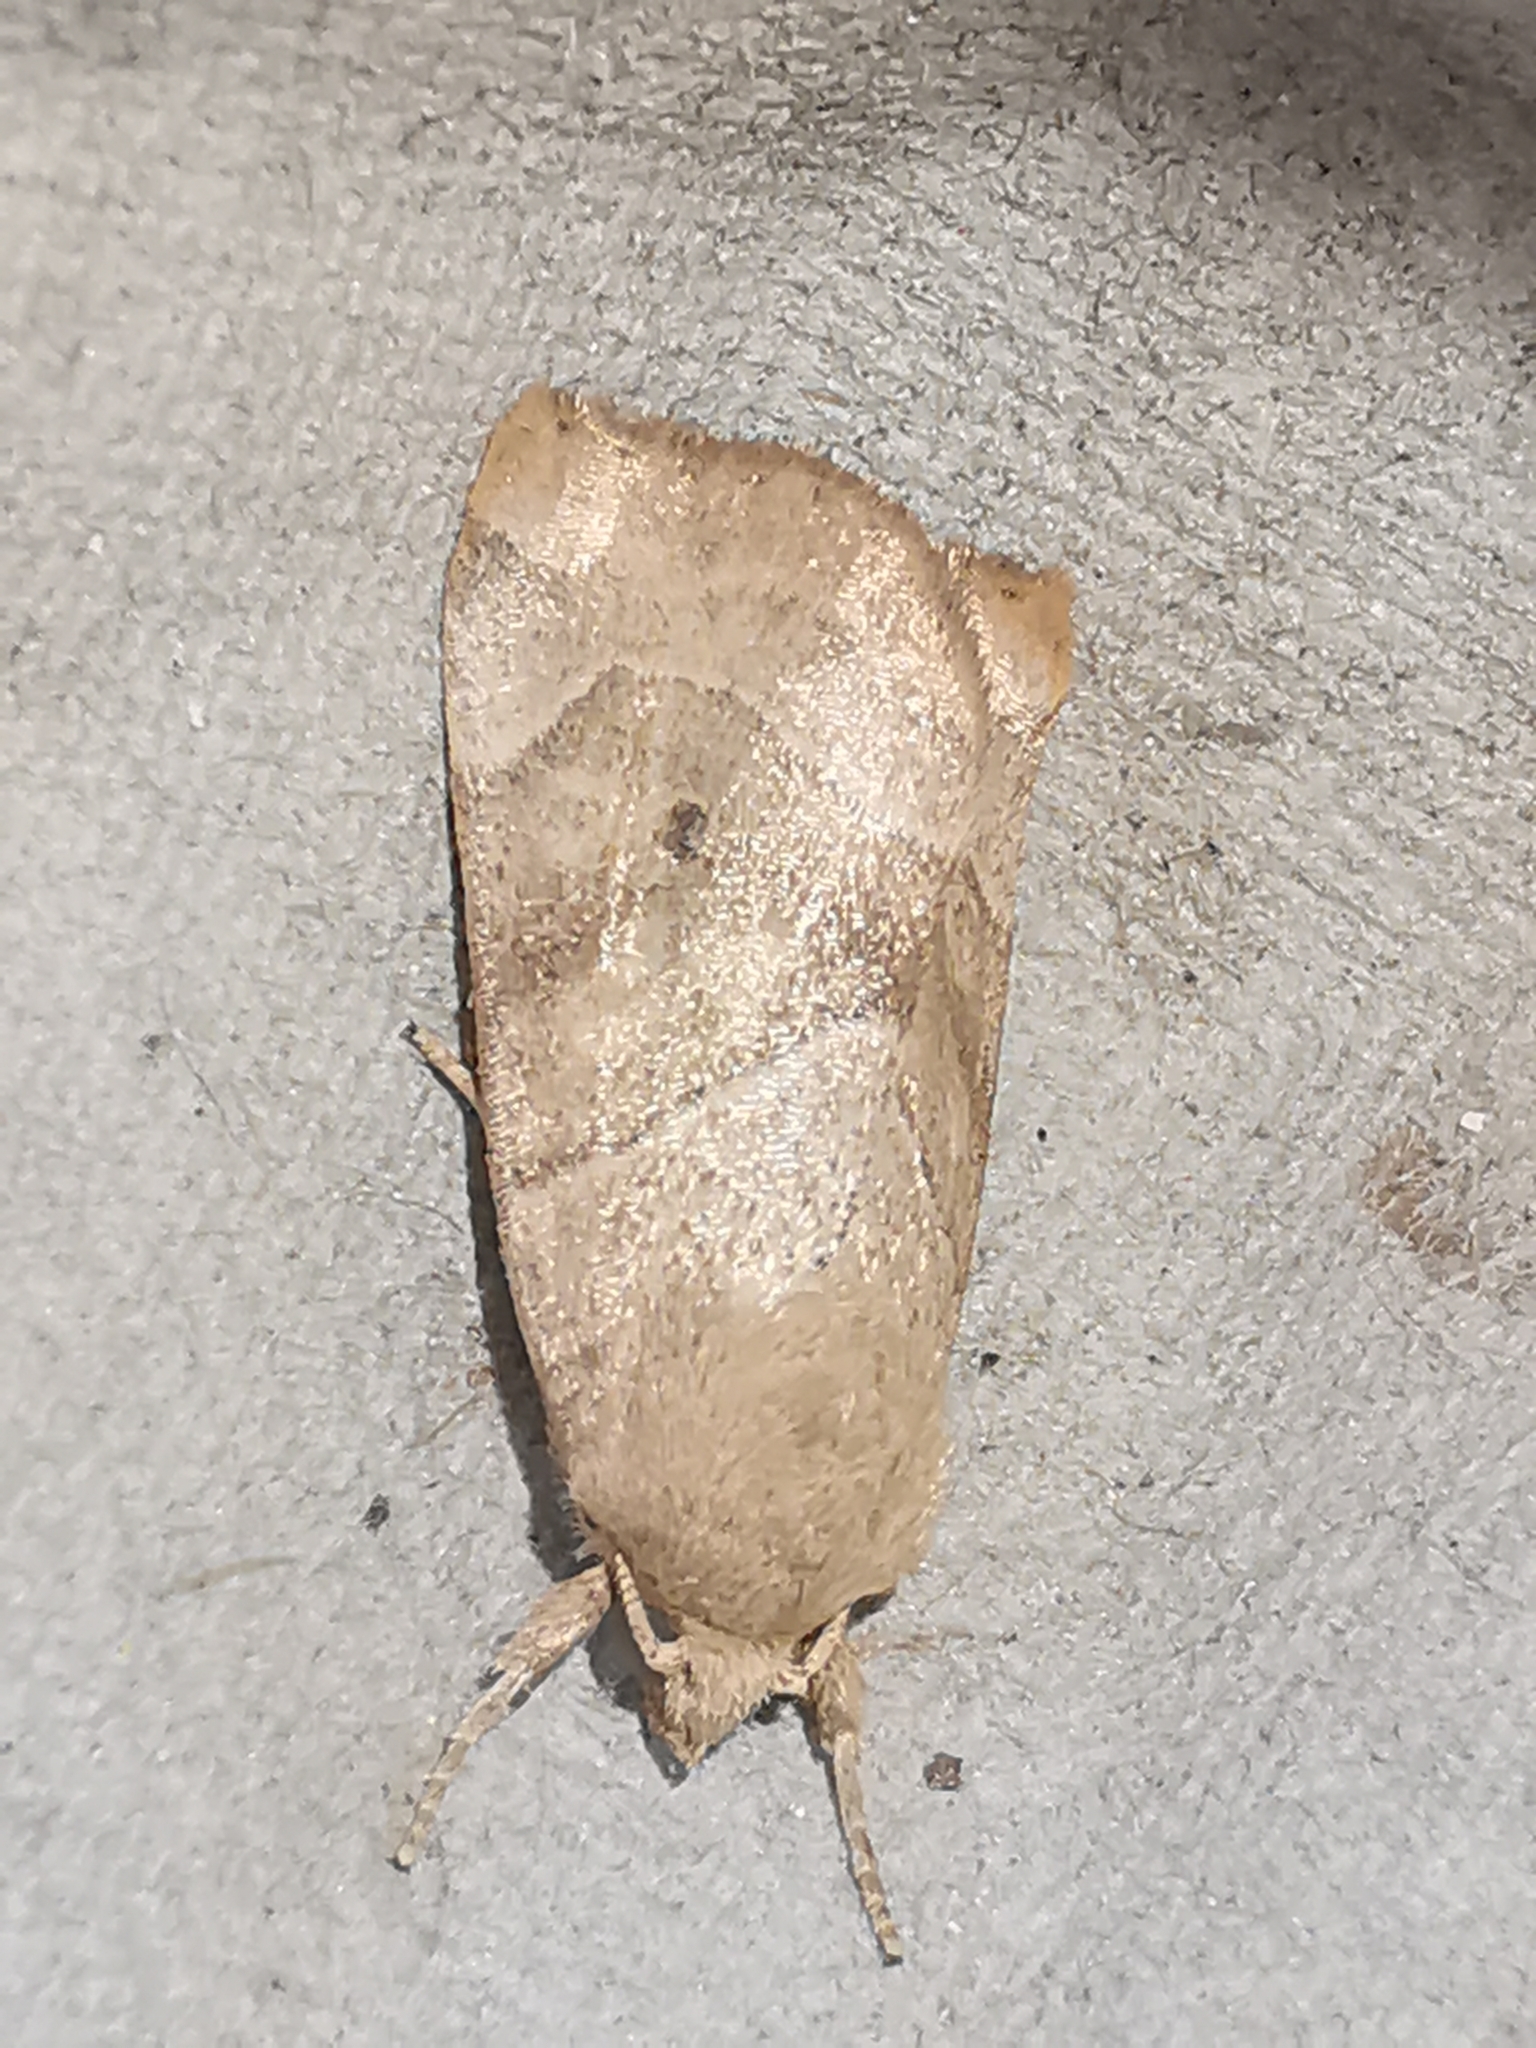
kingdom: Animalia
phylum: Arthropoda
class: Insecta
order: Lepidoptera
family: Noctuidae
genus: Cosmia
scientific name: Cosmia trapezina
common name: Dun-bar
